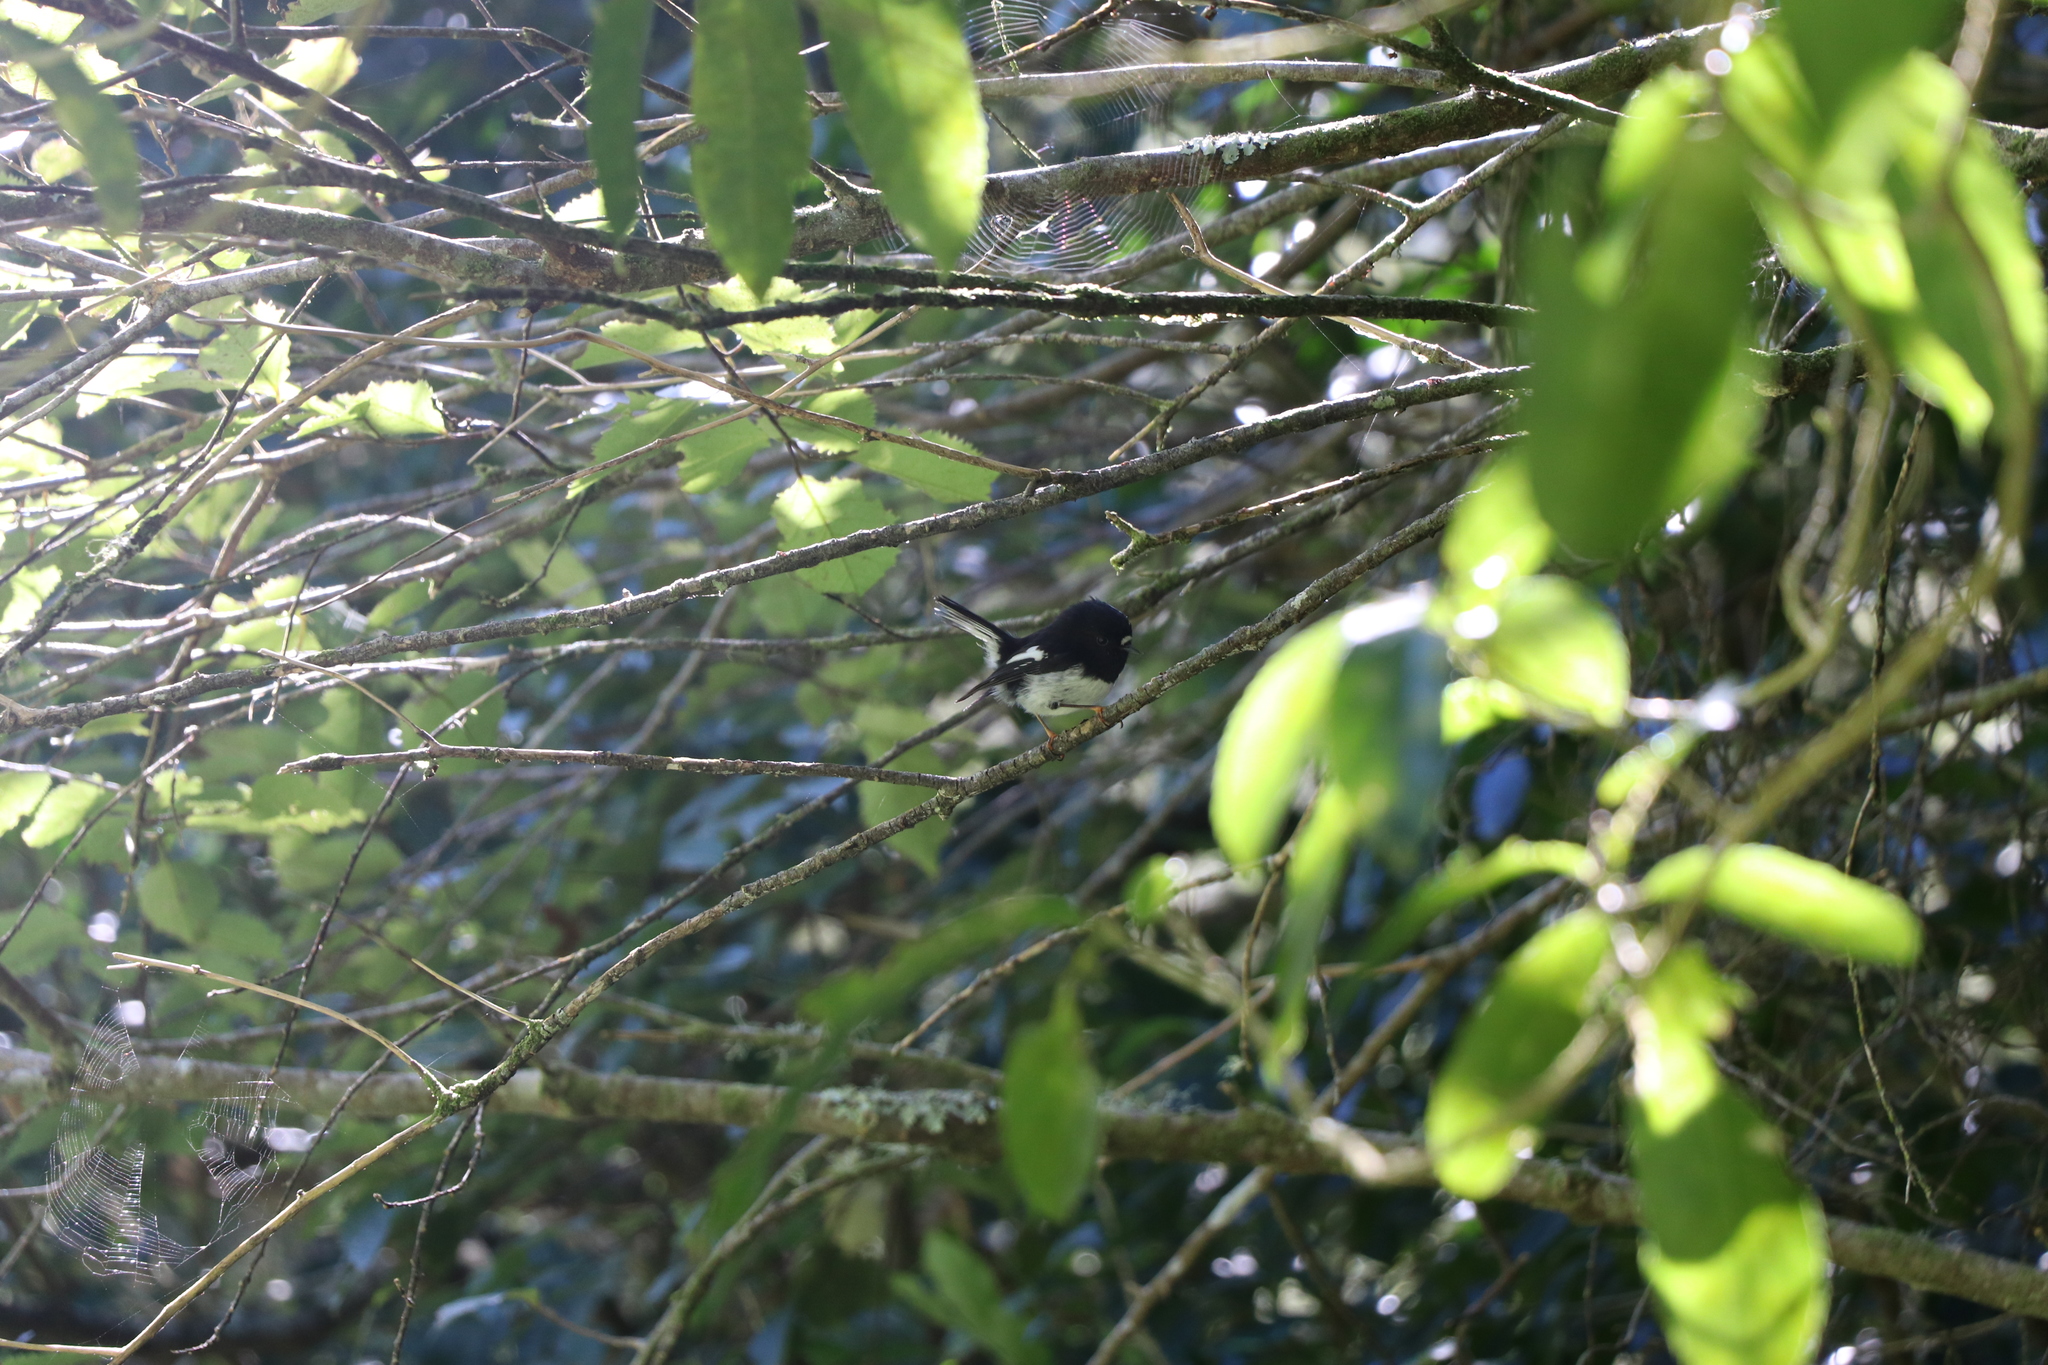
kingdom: Animalia
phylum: Chordata
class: Aves
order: Passeriformes
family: Petroicidae
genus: Petroica
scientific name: Petroica macrocephala
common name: Tomtit
